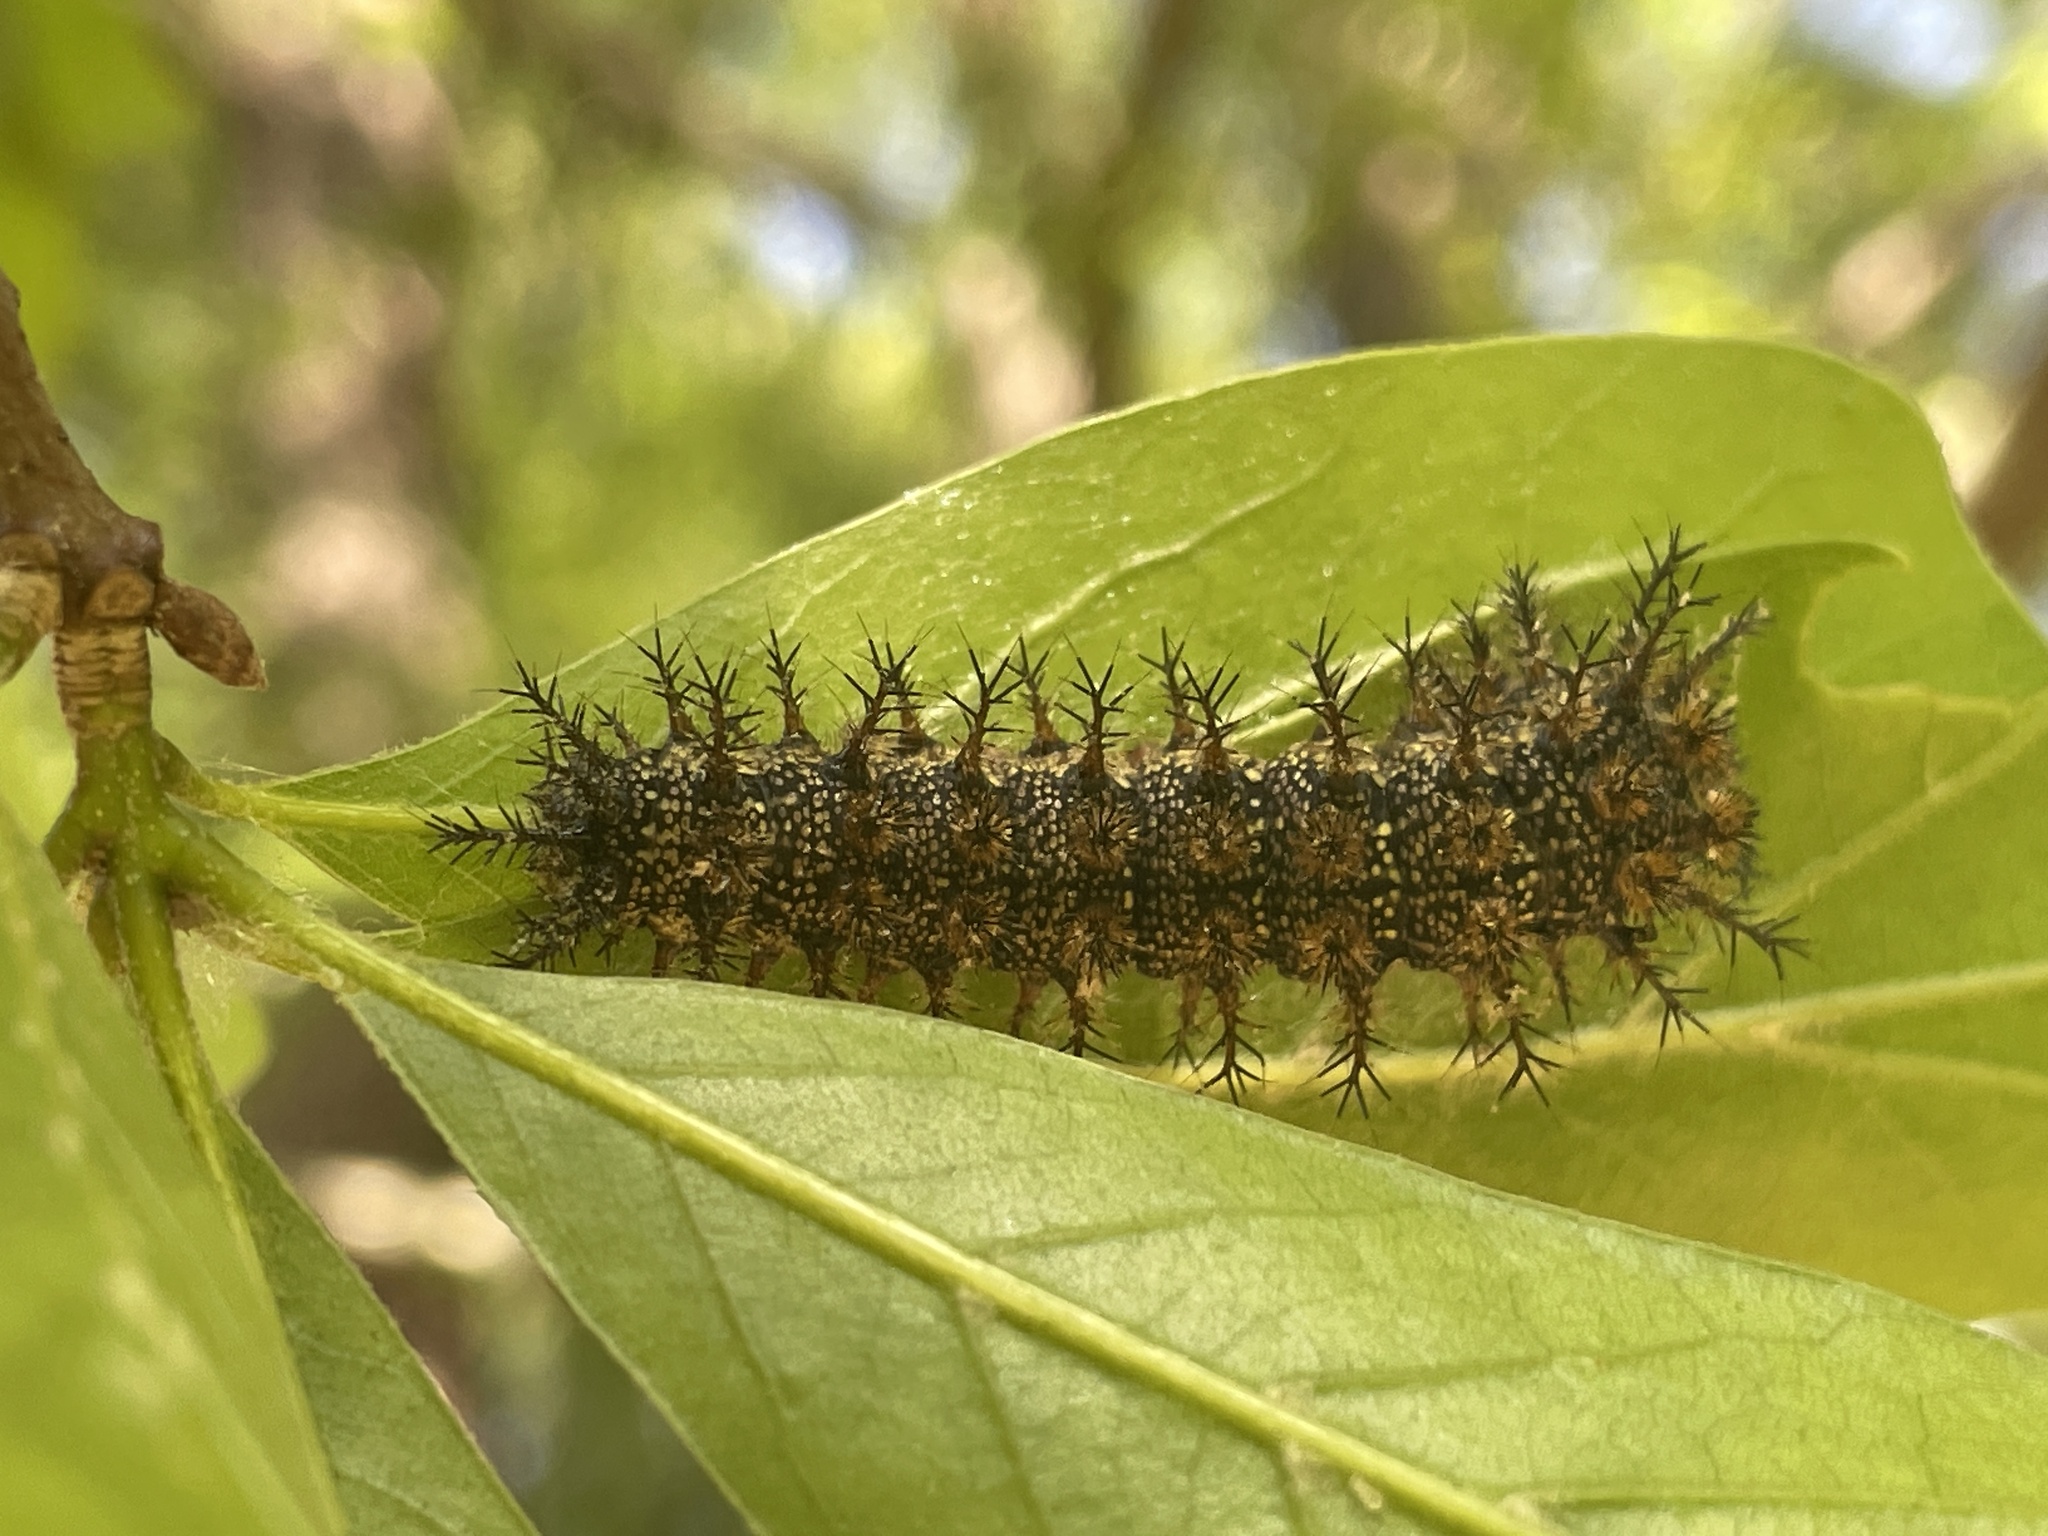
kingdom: Animalia
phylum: Arthropoda
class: Insecta
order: Lepidoptera
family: Saturniidae
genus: Hemileuca
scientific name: Hemileuca maia
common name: Eastern buckmoth
